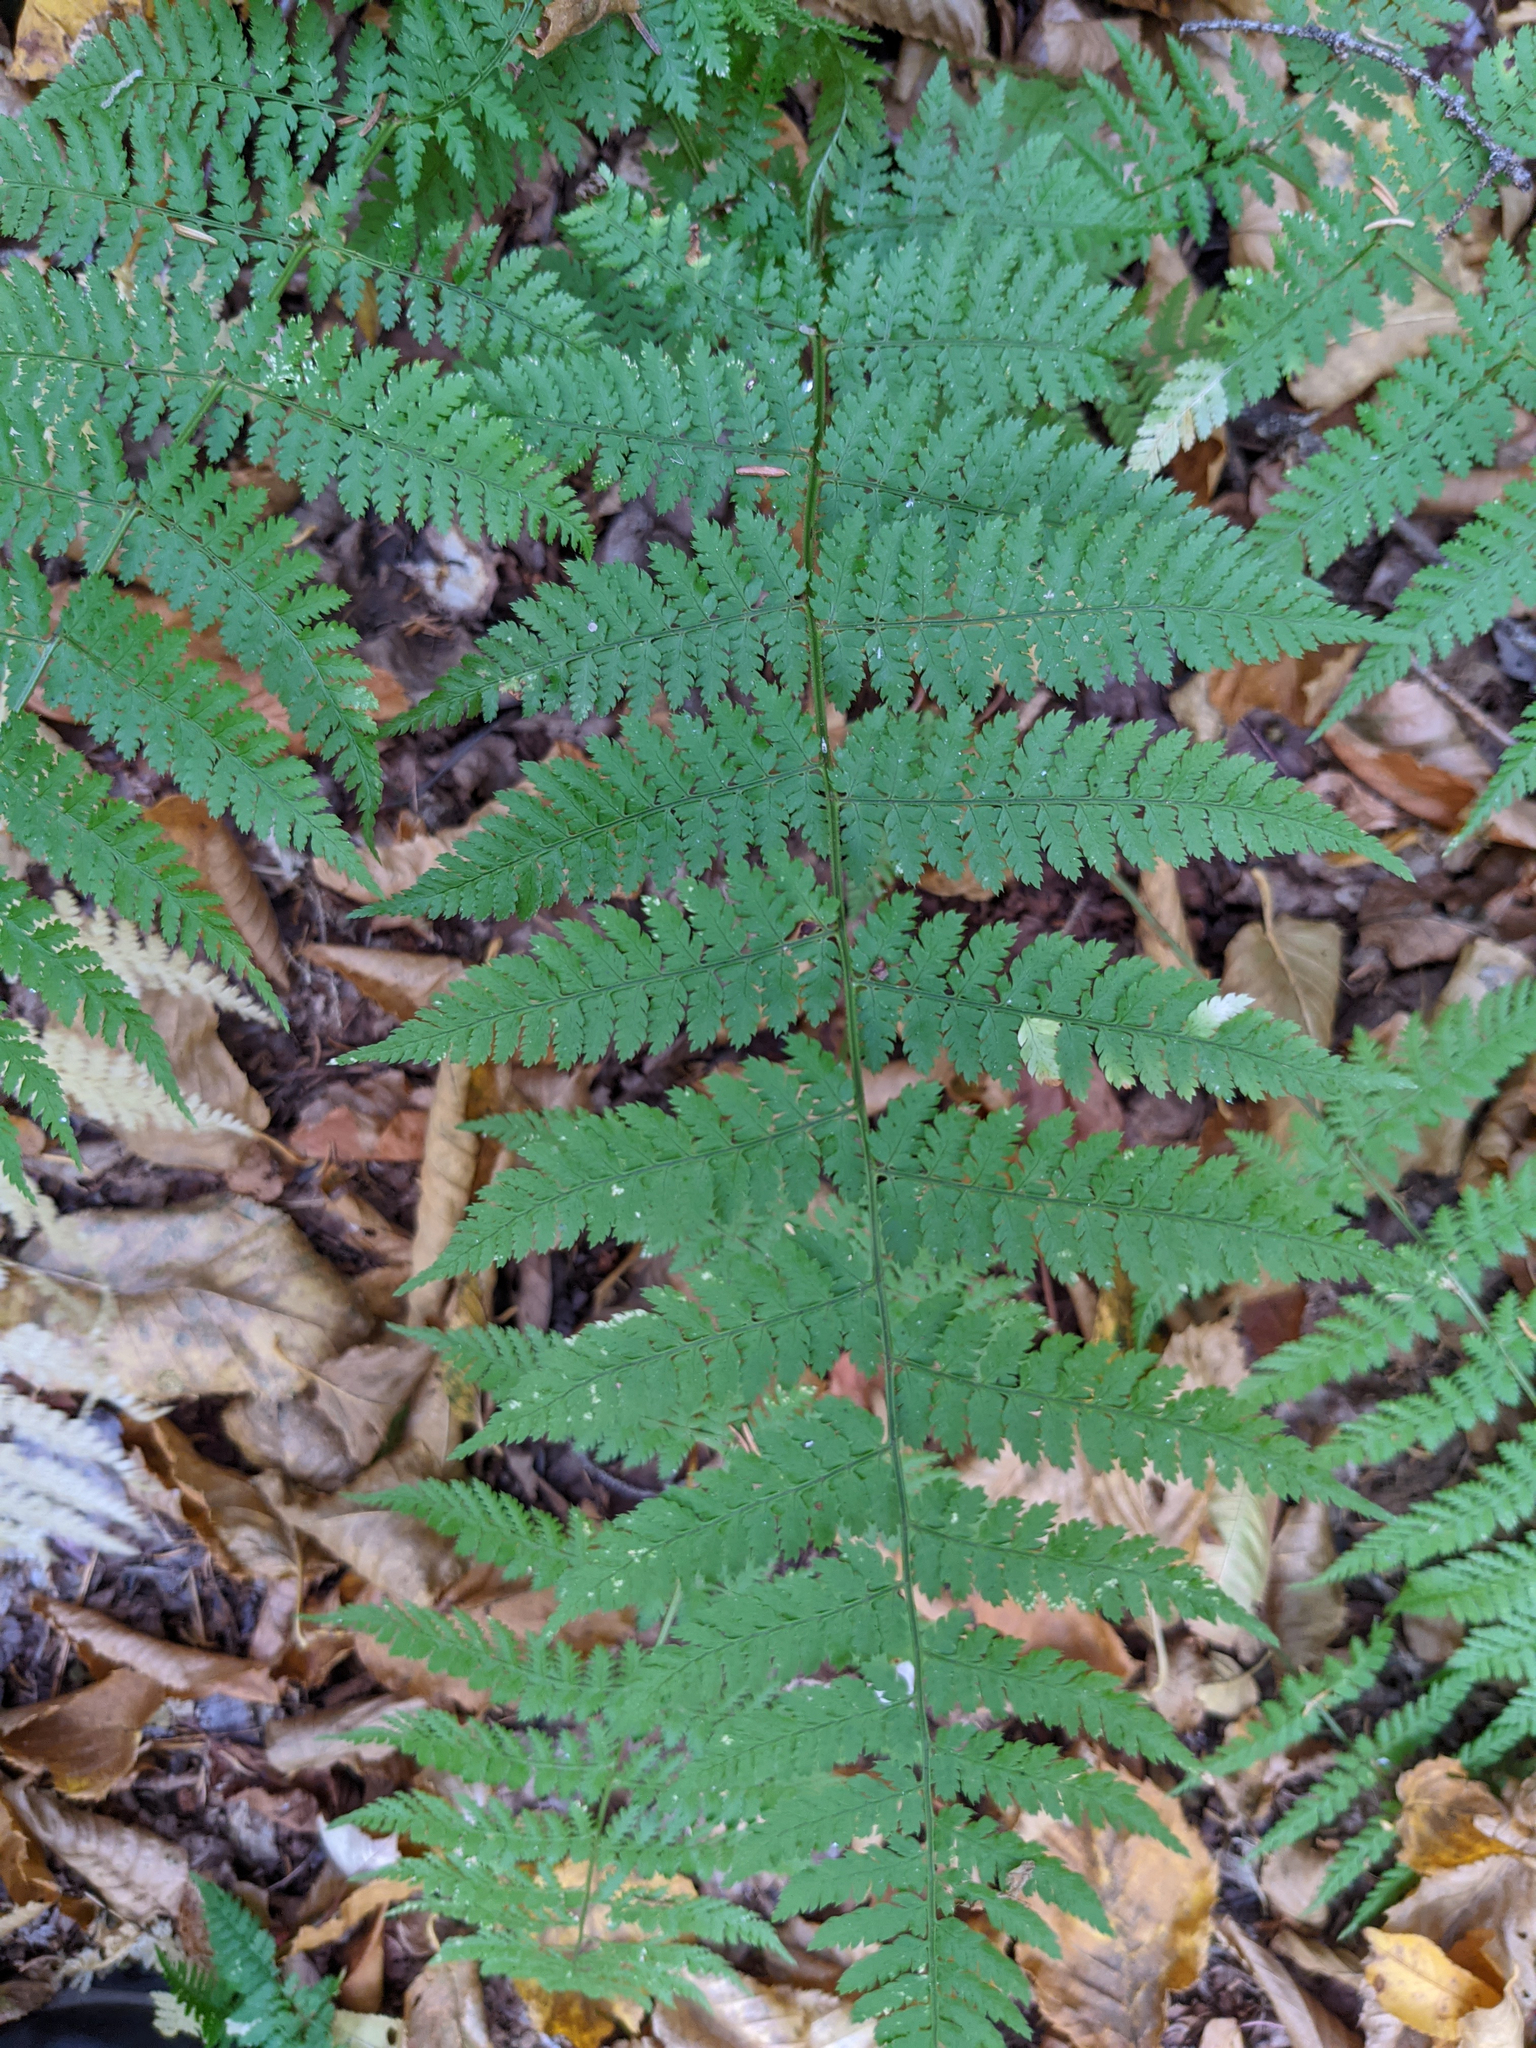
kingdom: Plantae
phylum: Tracheophyta
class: Polypodiopsida
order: Polypodiales
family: Dryopteridaceae
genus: Dryopteris
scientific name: Dryopteris intermedia
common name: Evergreen wood fern
